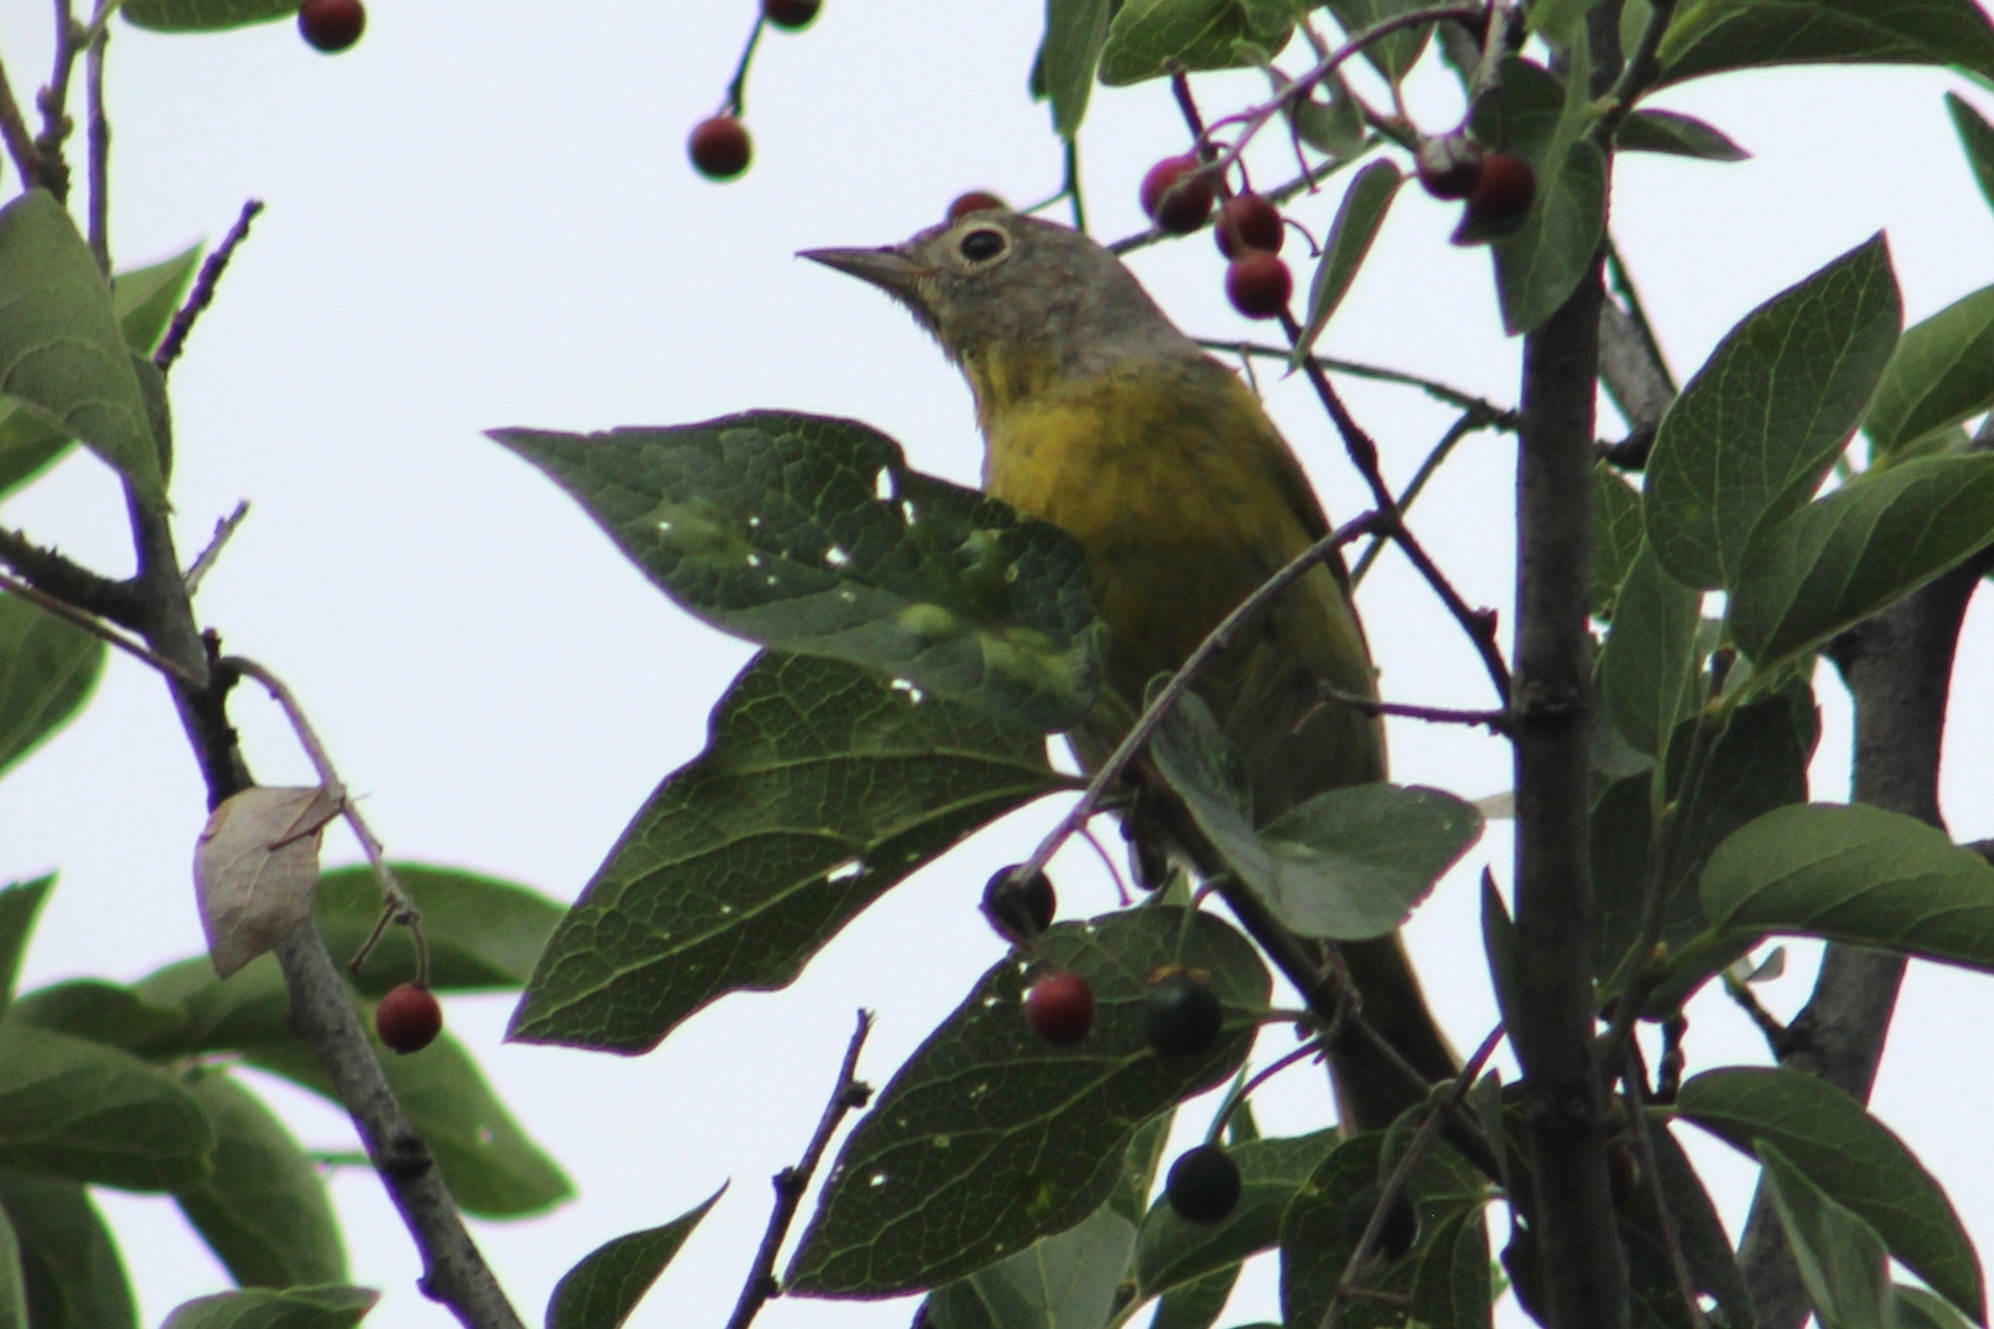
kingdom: Animalia
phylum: Chordata
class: Aves
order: Passeriformes
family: Parulidae
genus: Leiothlypis
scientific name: Leiothlypis ruficapilla
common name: Nashville warbler
